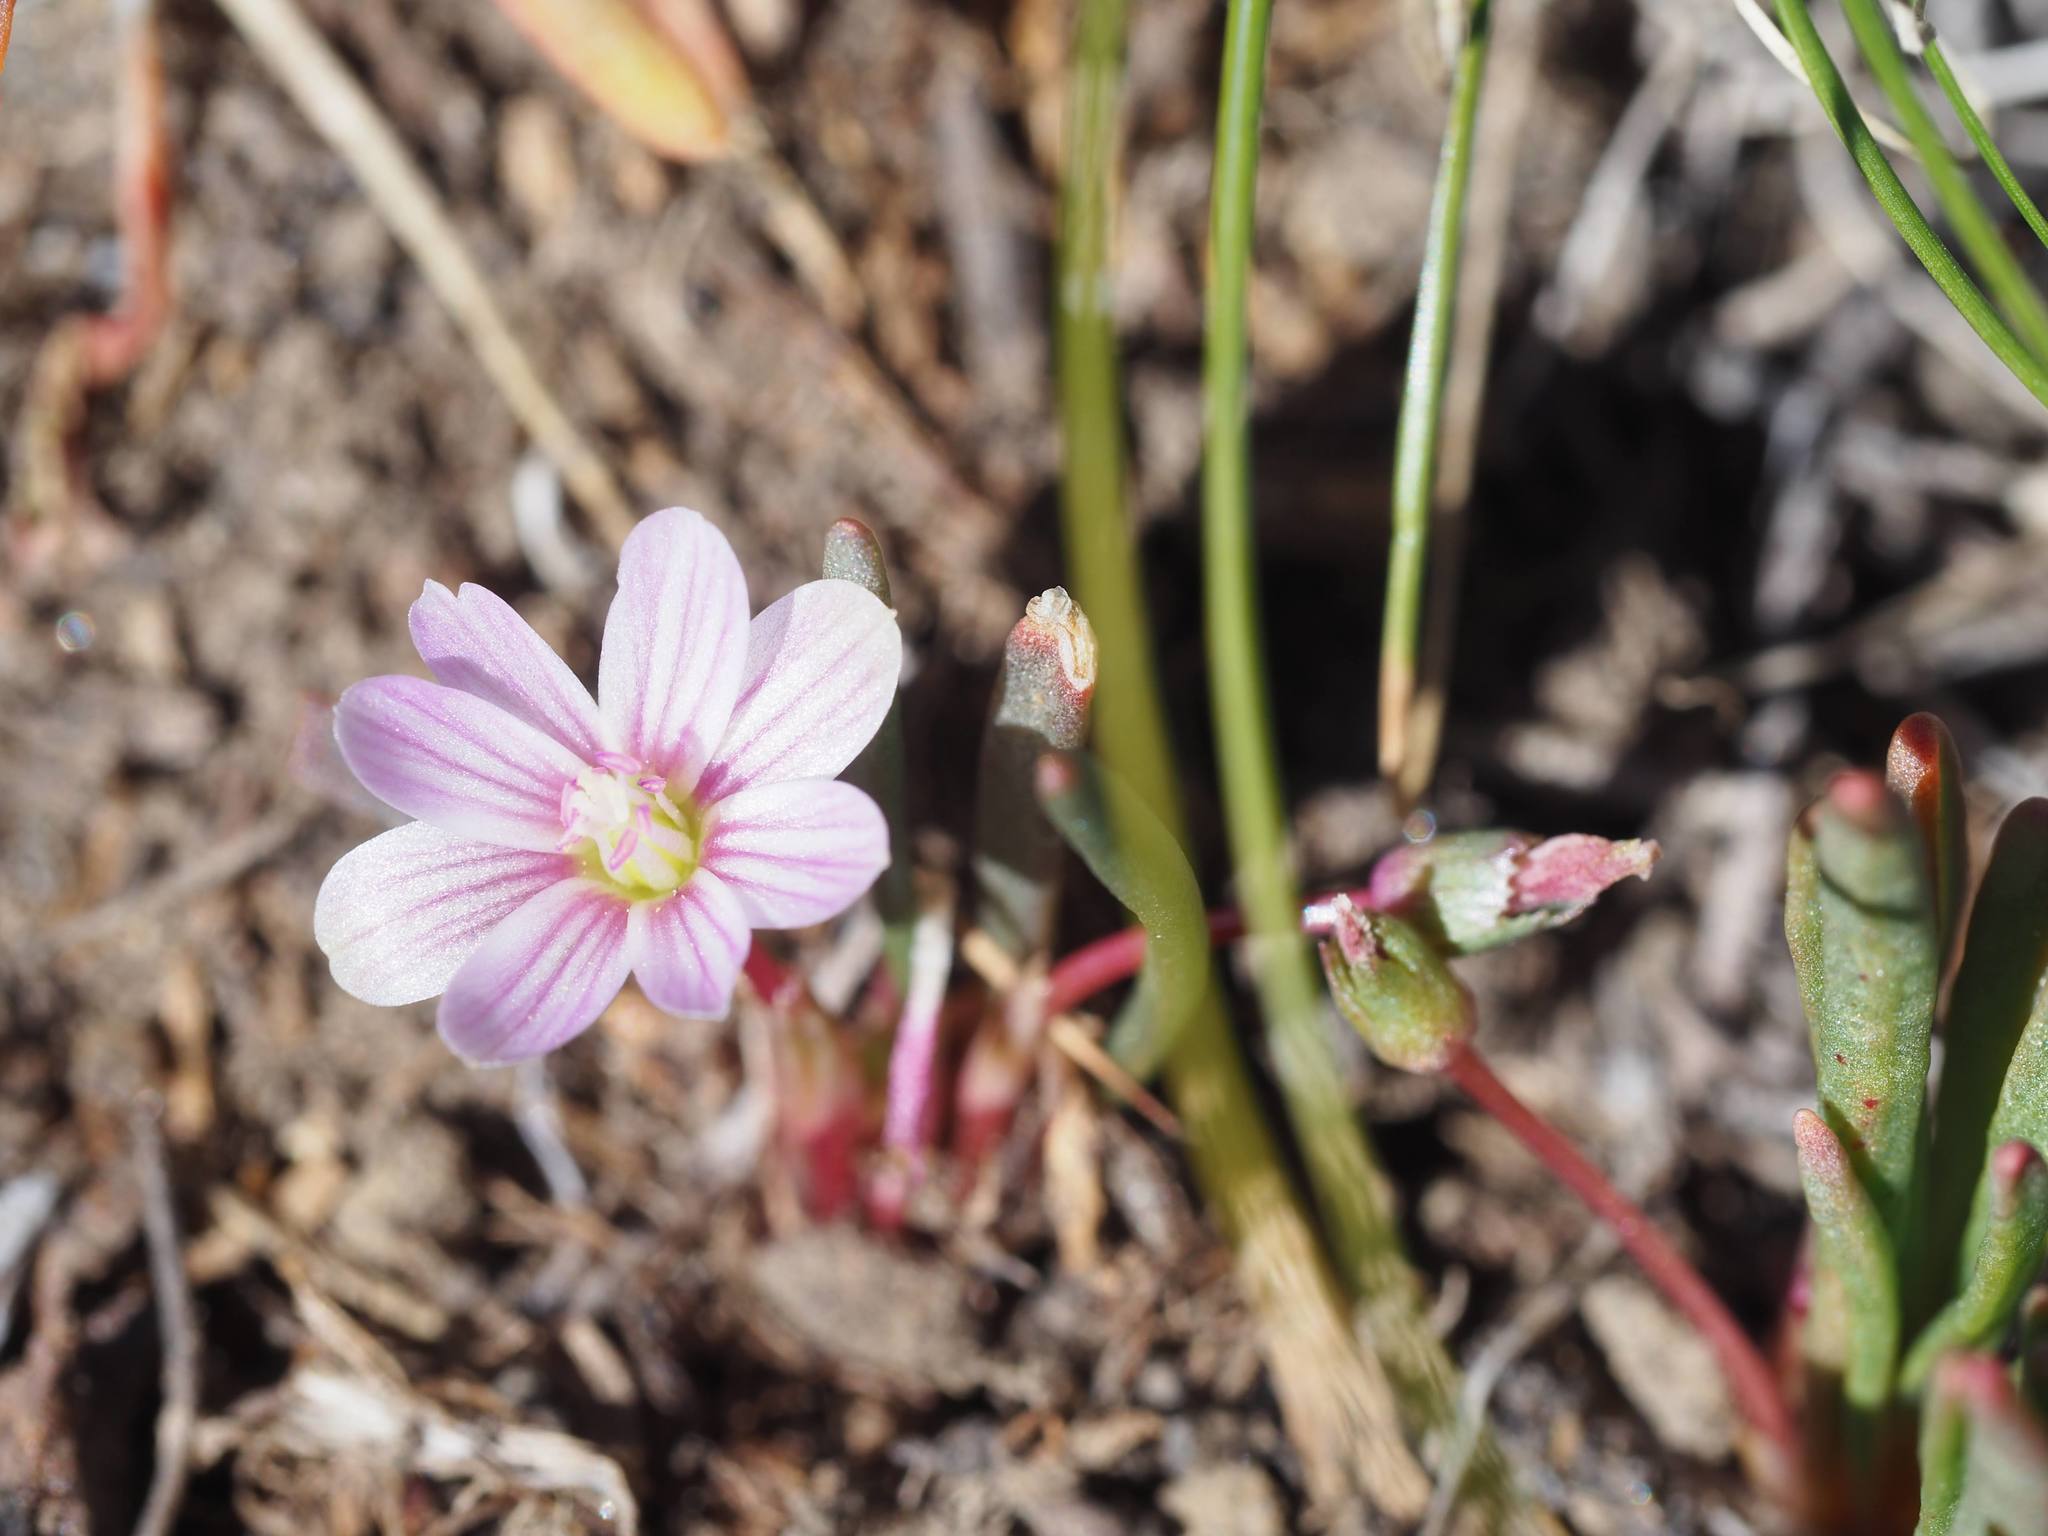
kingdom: Plantae
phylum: Tracheophyta
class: Magnoliopsida
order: Caryophyllales
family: Montiaceae
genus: Lewisia
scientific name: Lewisia pygmaea
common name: Alpine bitterroot
